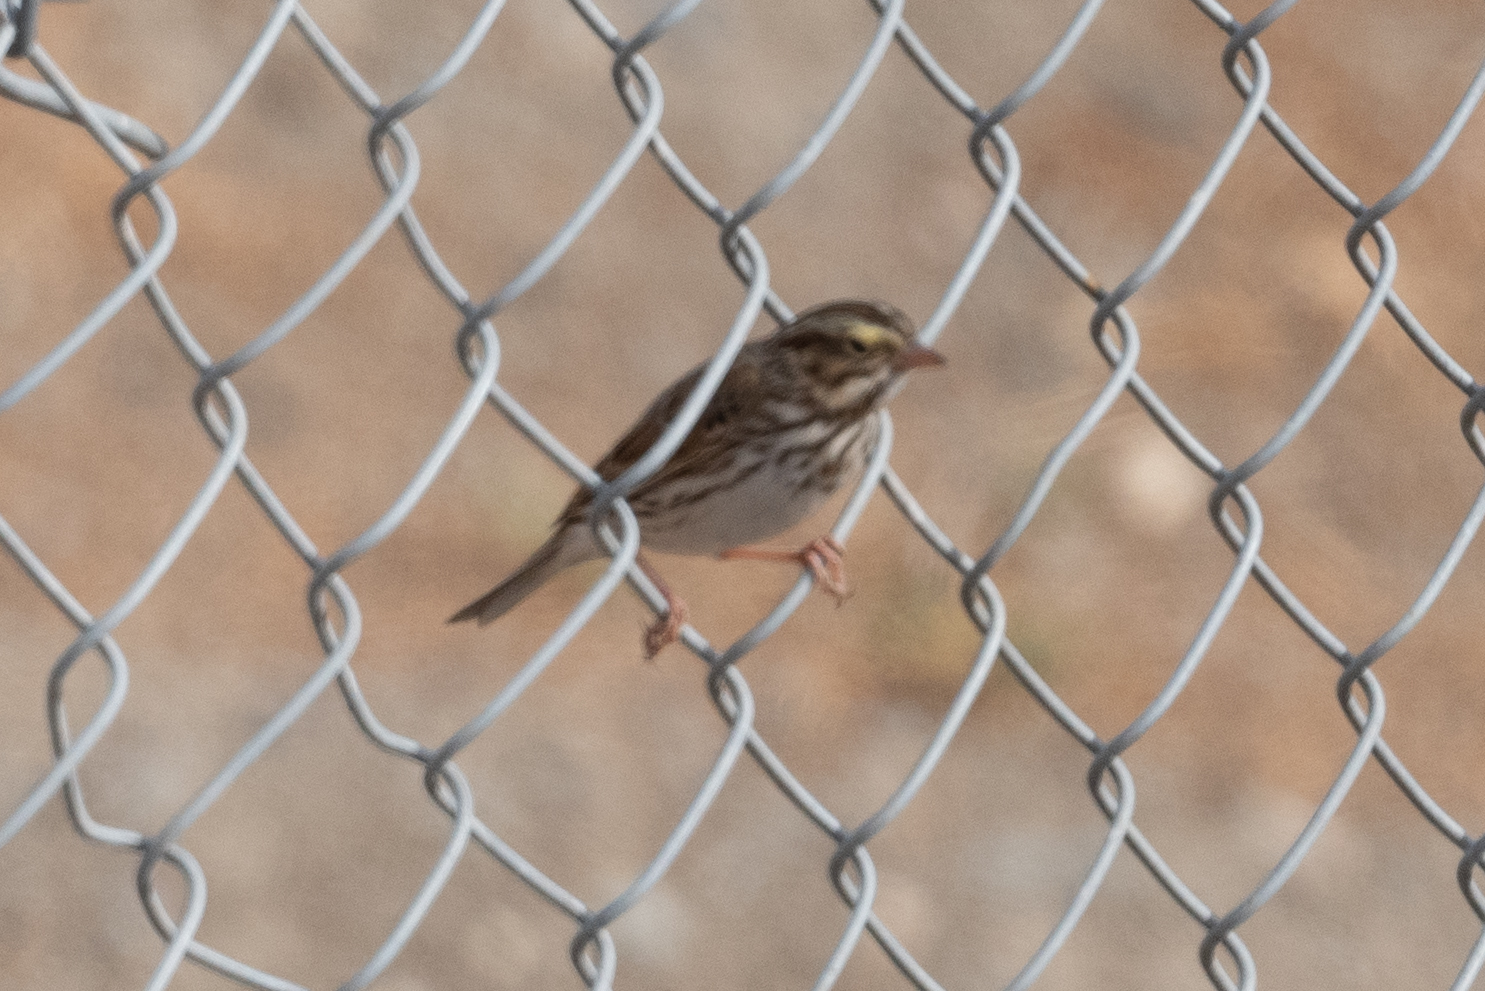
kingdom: Animalia
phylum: Chordata
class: Aves
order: Passeriformes
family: Passerellidae
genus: Passerculus
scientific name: Passerculus sandwichensis
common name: Savannah sparrow
